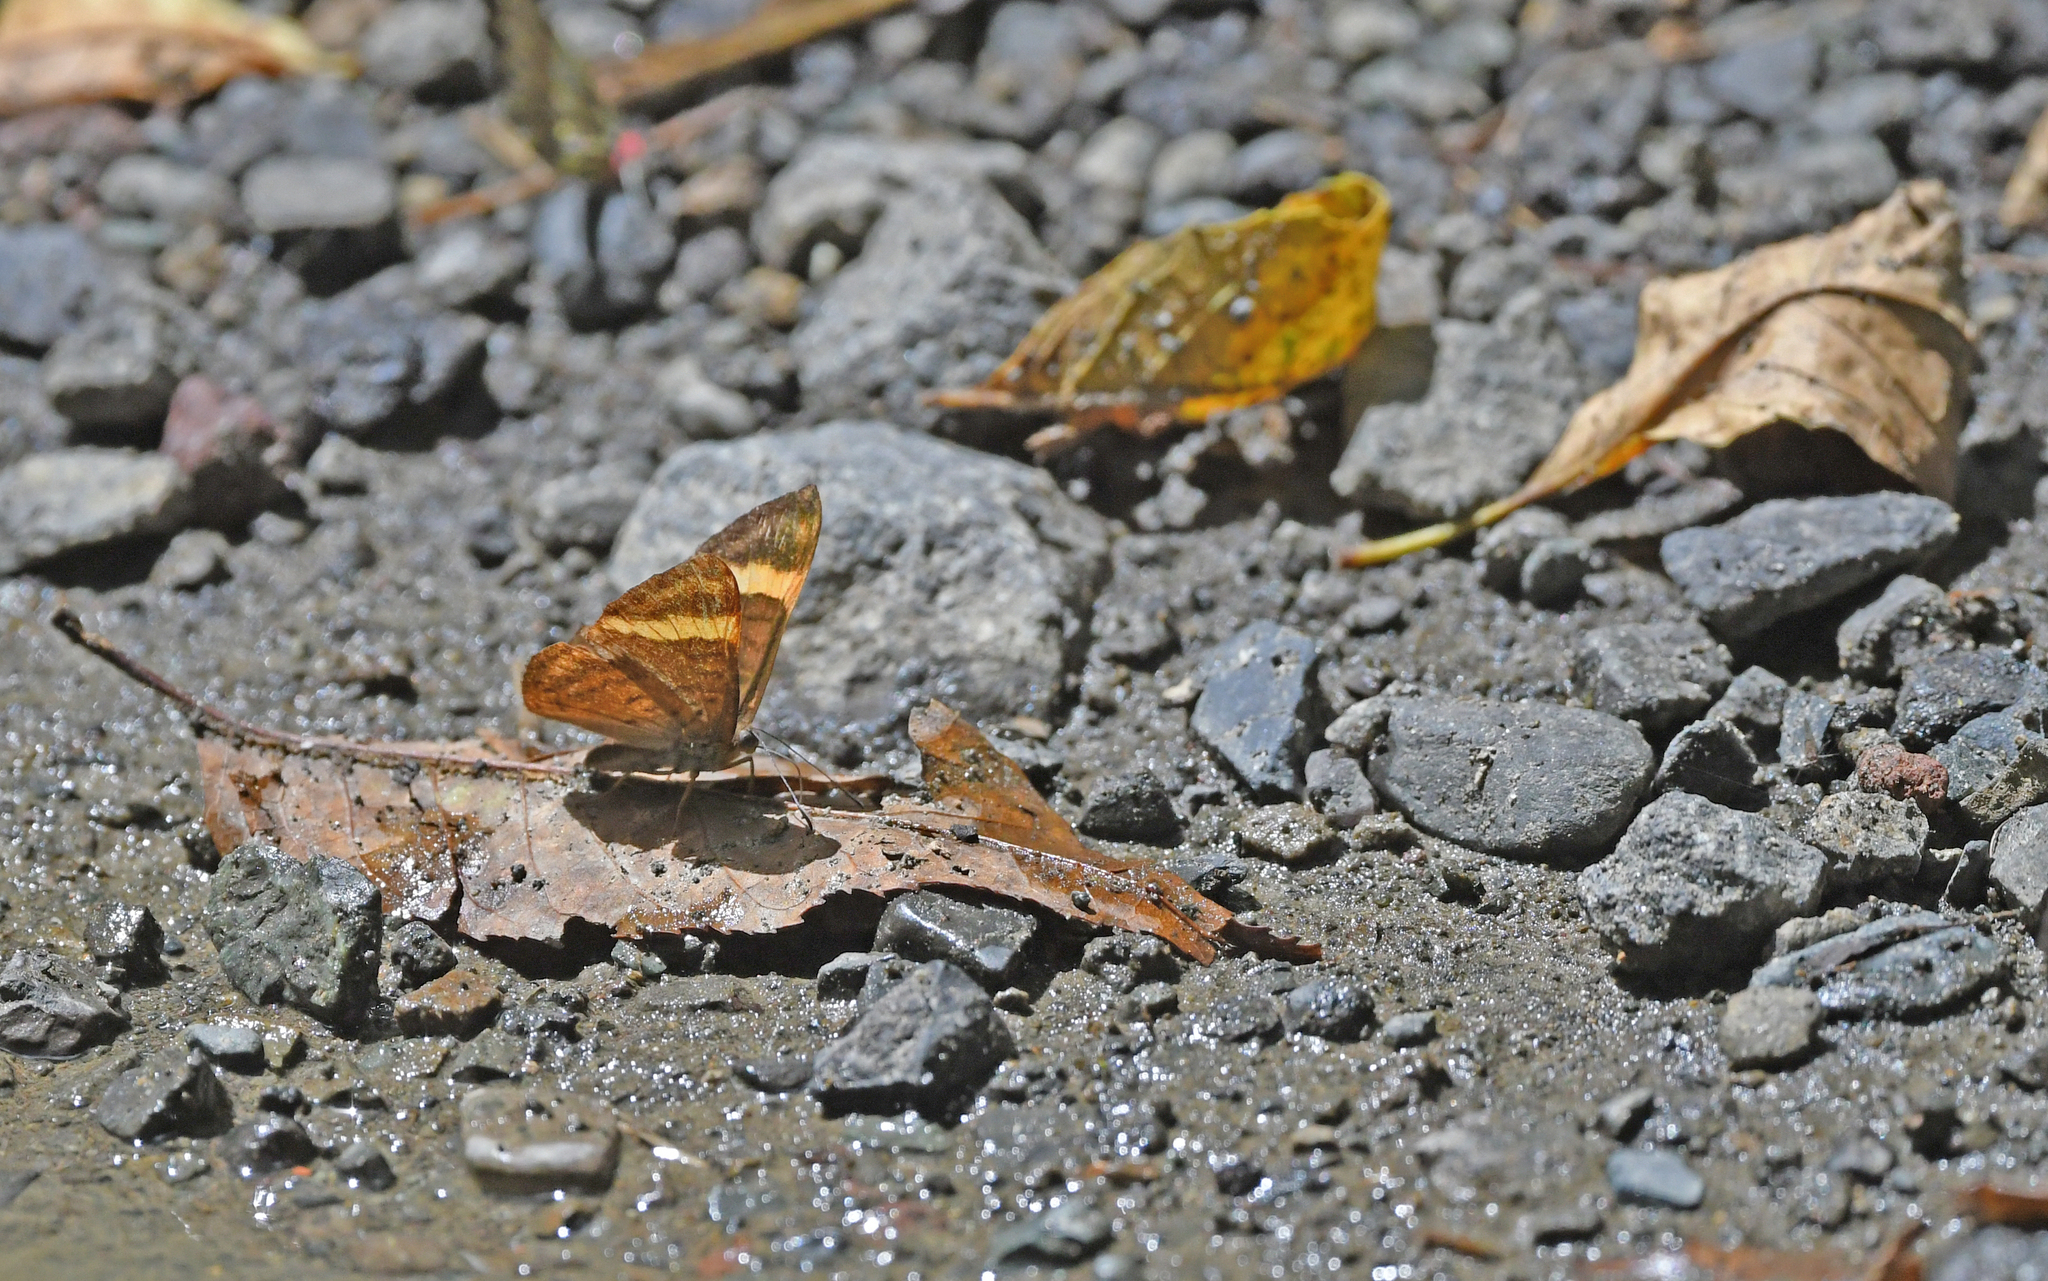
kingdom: Animalia
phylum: Arthropoda
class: Insecta
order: Lepidoptera
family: Lycaenidae
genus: Emesis
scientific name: Emesis cypria
